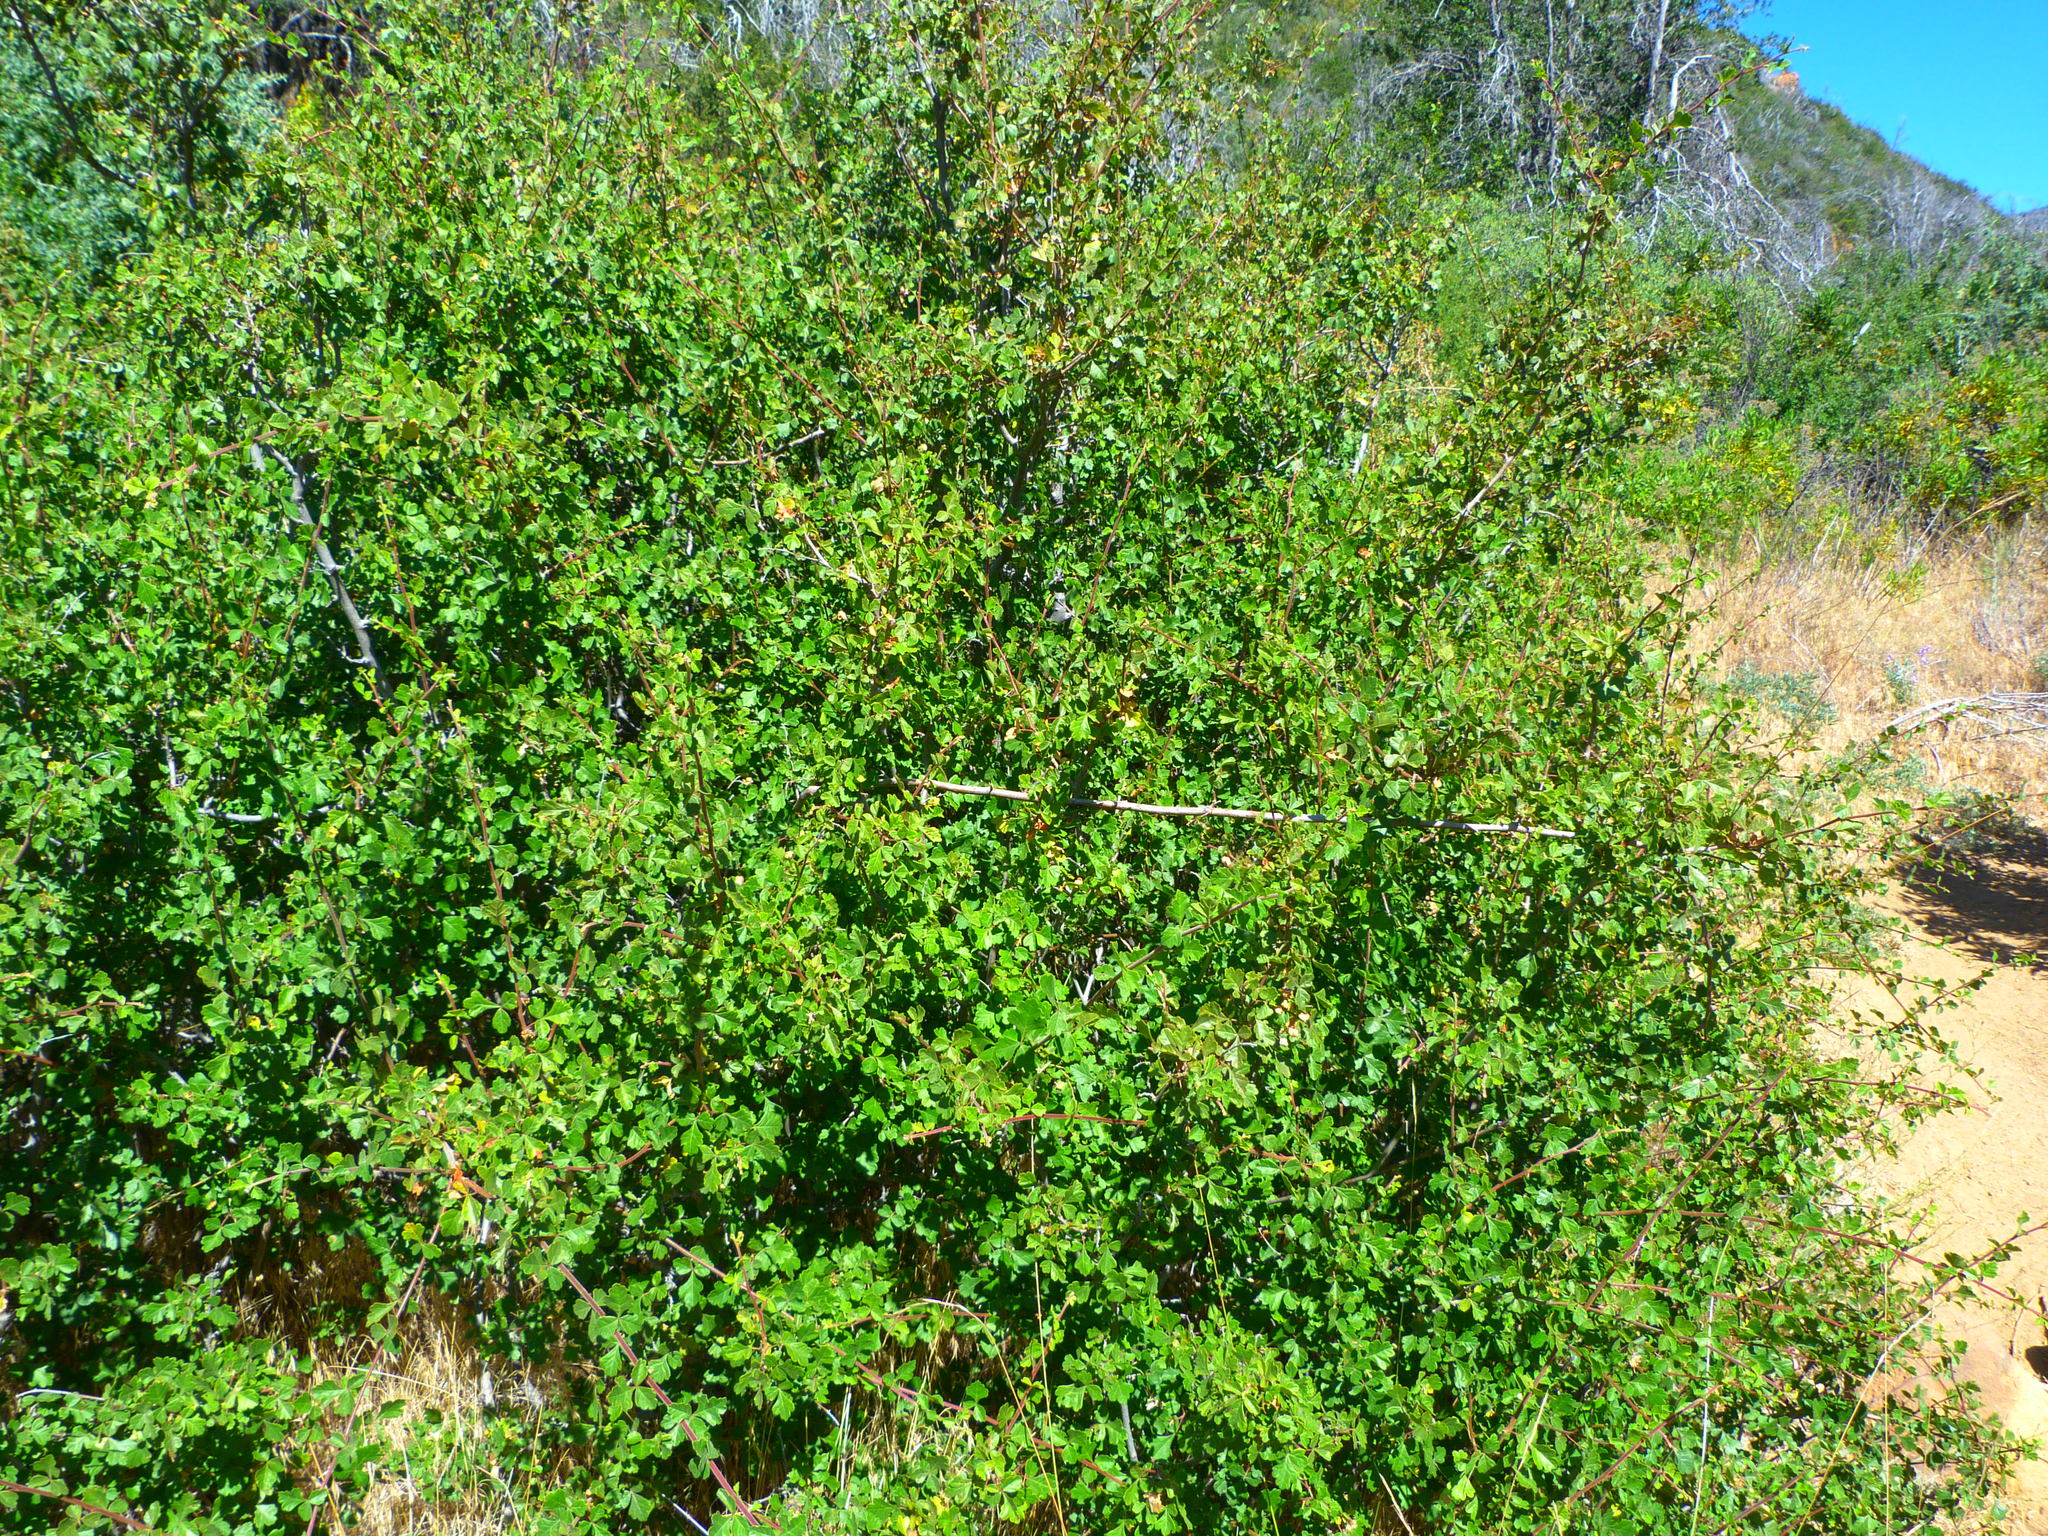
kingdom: Plantae
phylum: Tracheophyta
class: Magnoliopsida
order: Sapindales
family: Anacardiaceae
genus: Rhus
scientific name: Rhus aromatica
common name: Aromatic sumac
